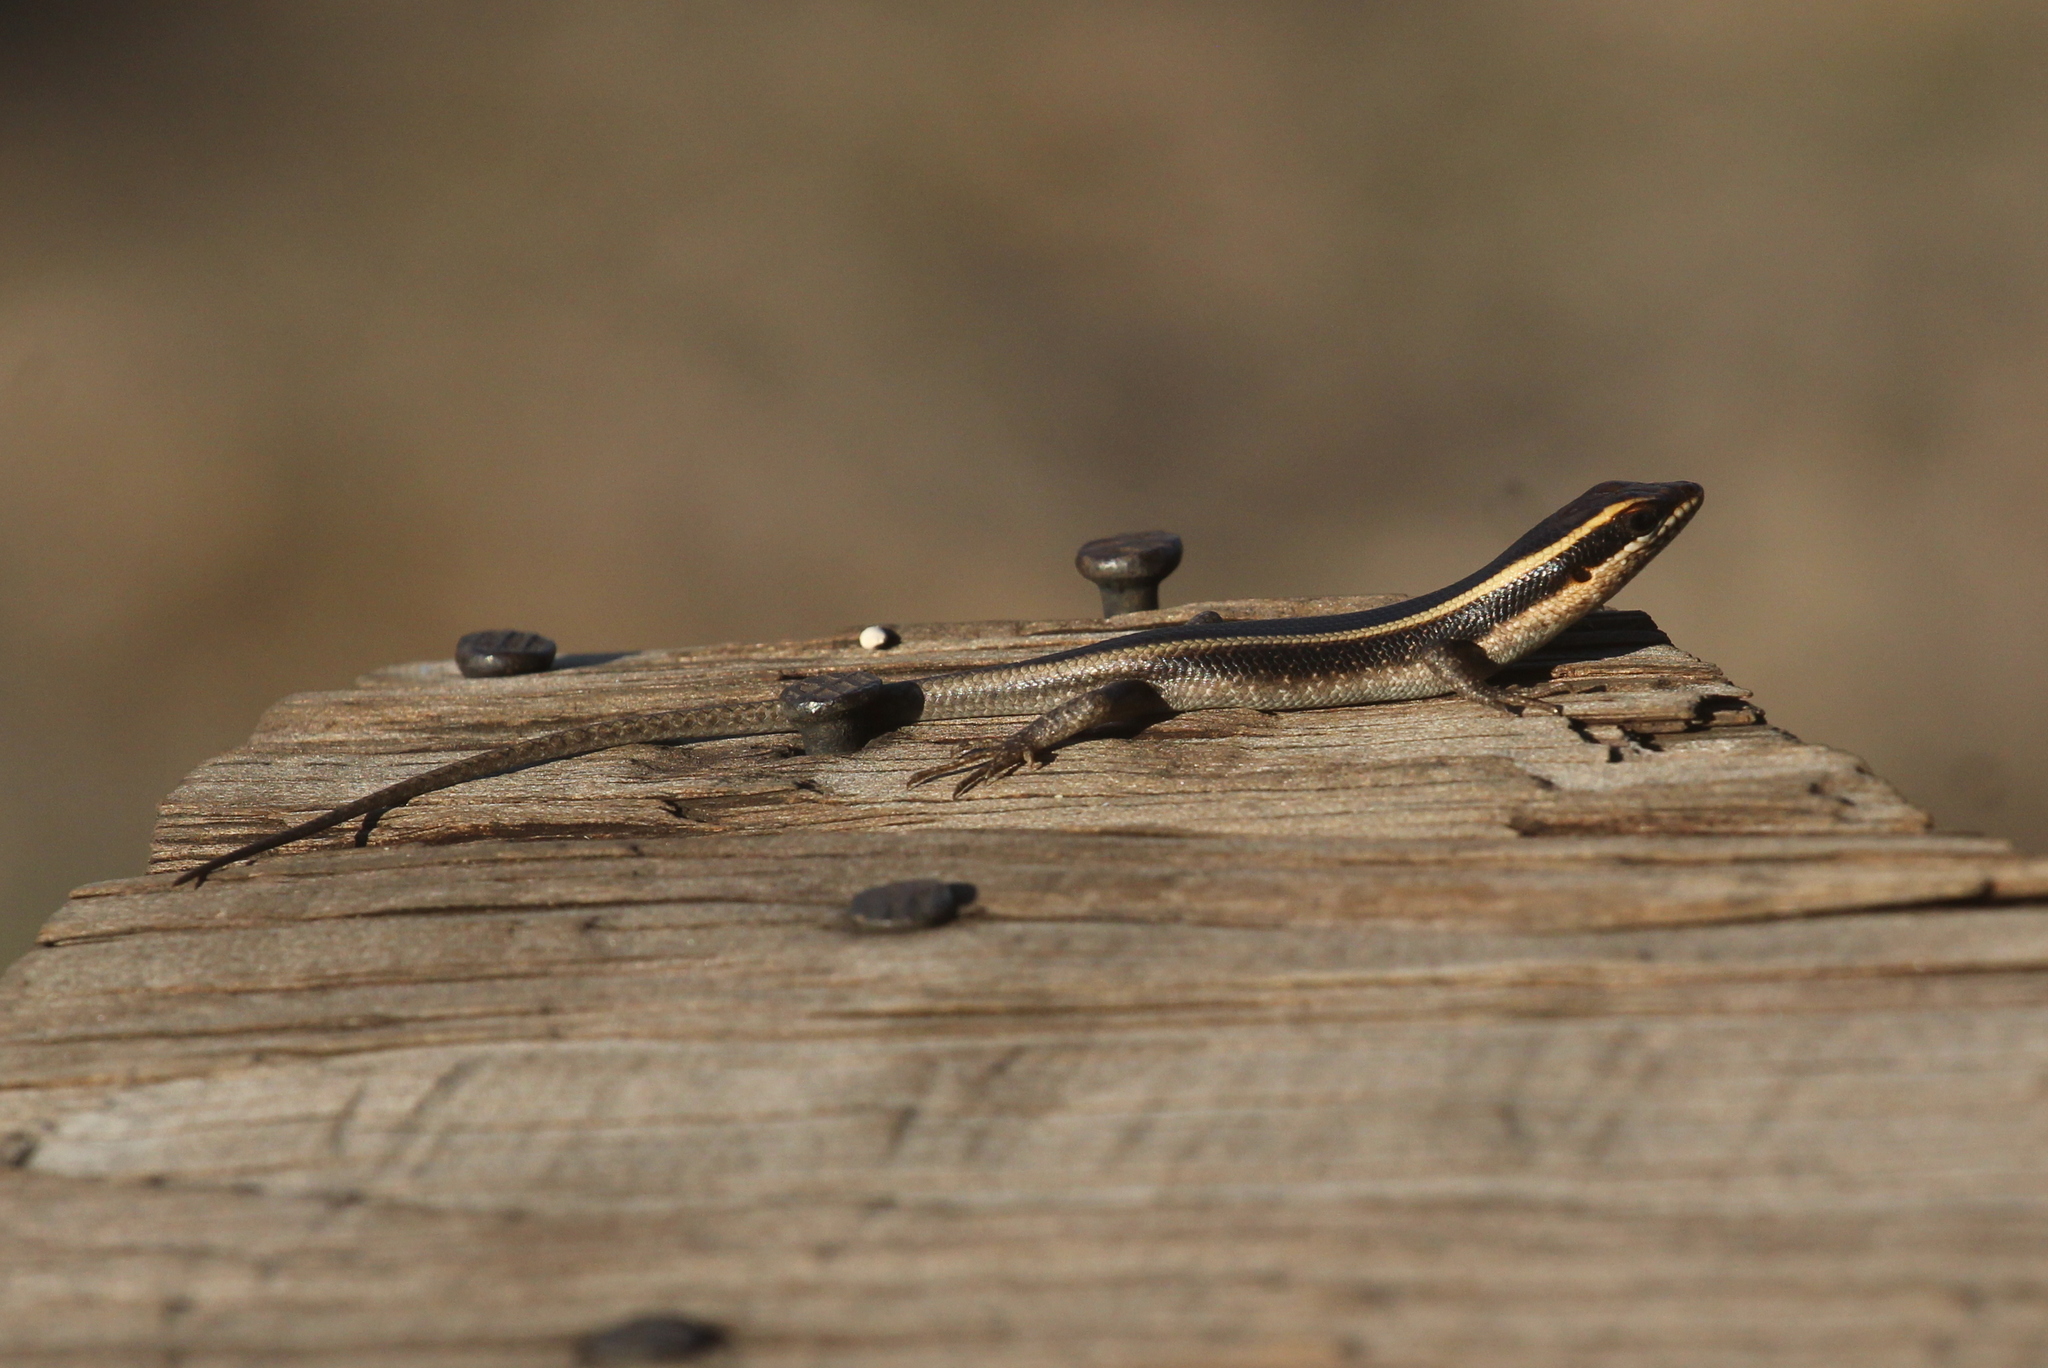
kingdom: Animalia
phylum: Chordata
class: Squamata
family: Scincidae
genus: Trachylepis
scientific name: Trachylepis striata
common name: African striped mabuya
